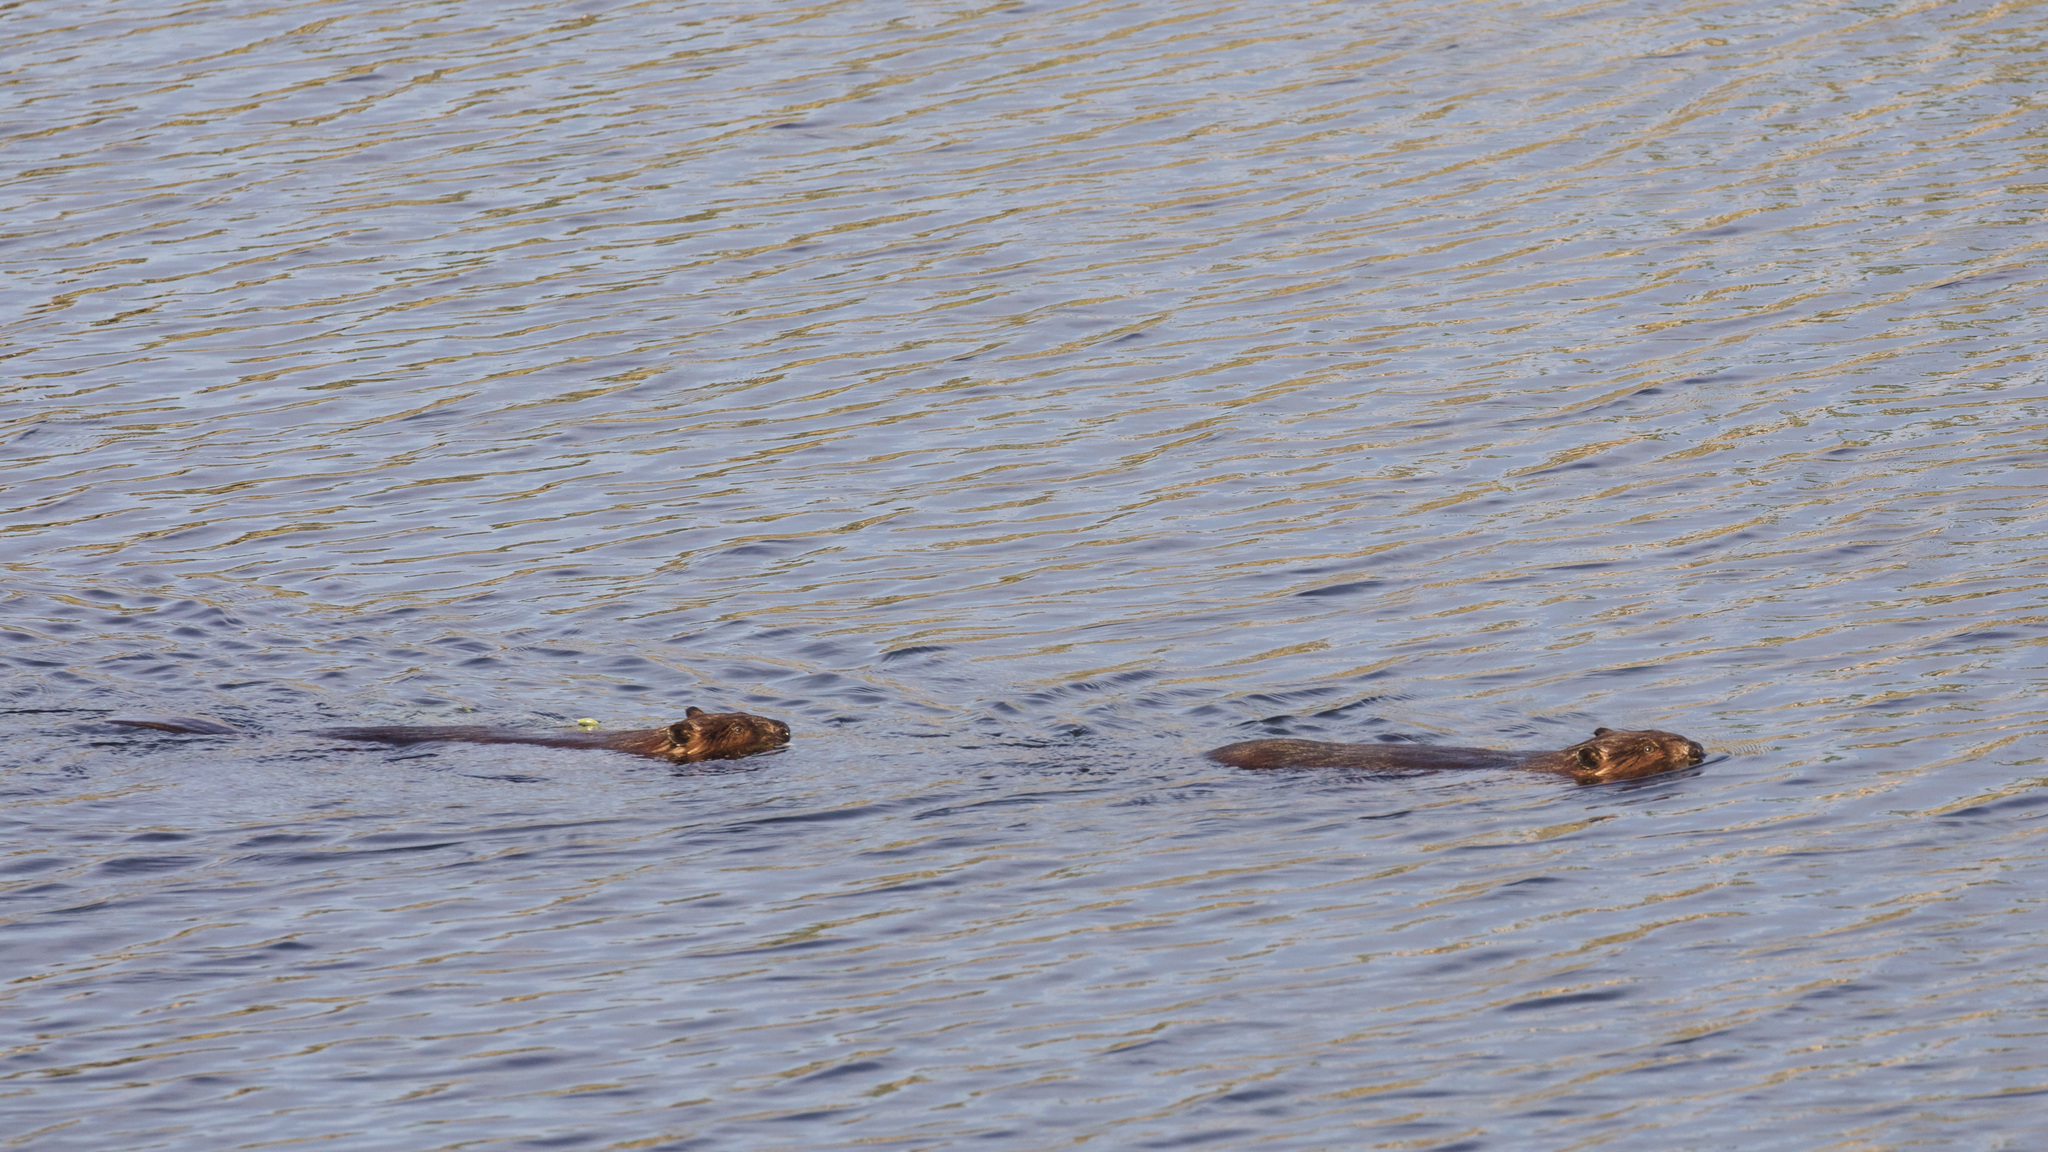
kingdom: Animalia
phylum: Chordata
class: Mammalia
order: Rodentia
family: Castoridae
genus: Castor
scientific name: Castor canadensis
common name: American beaver
